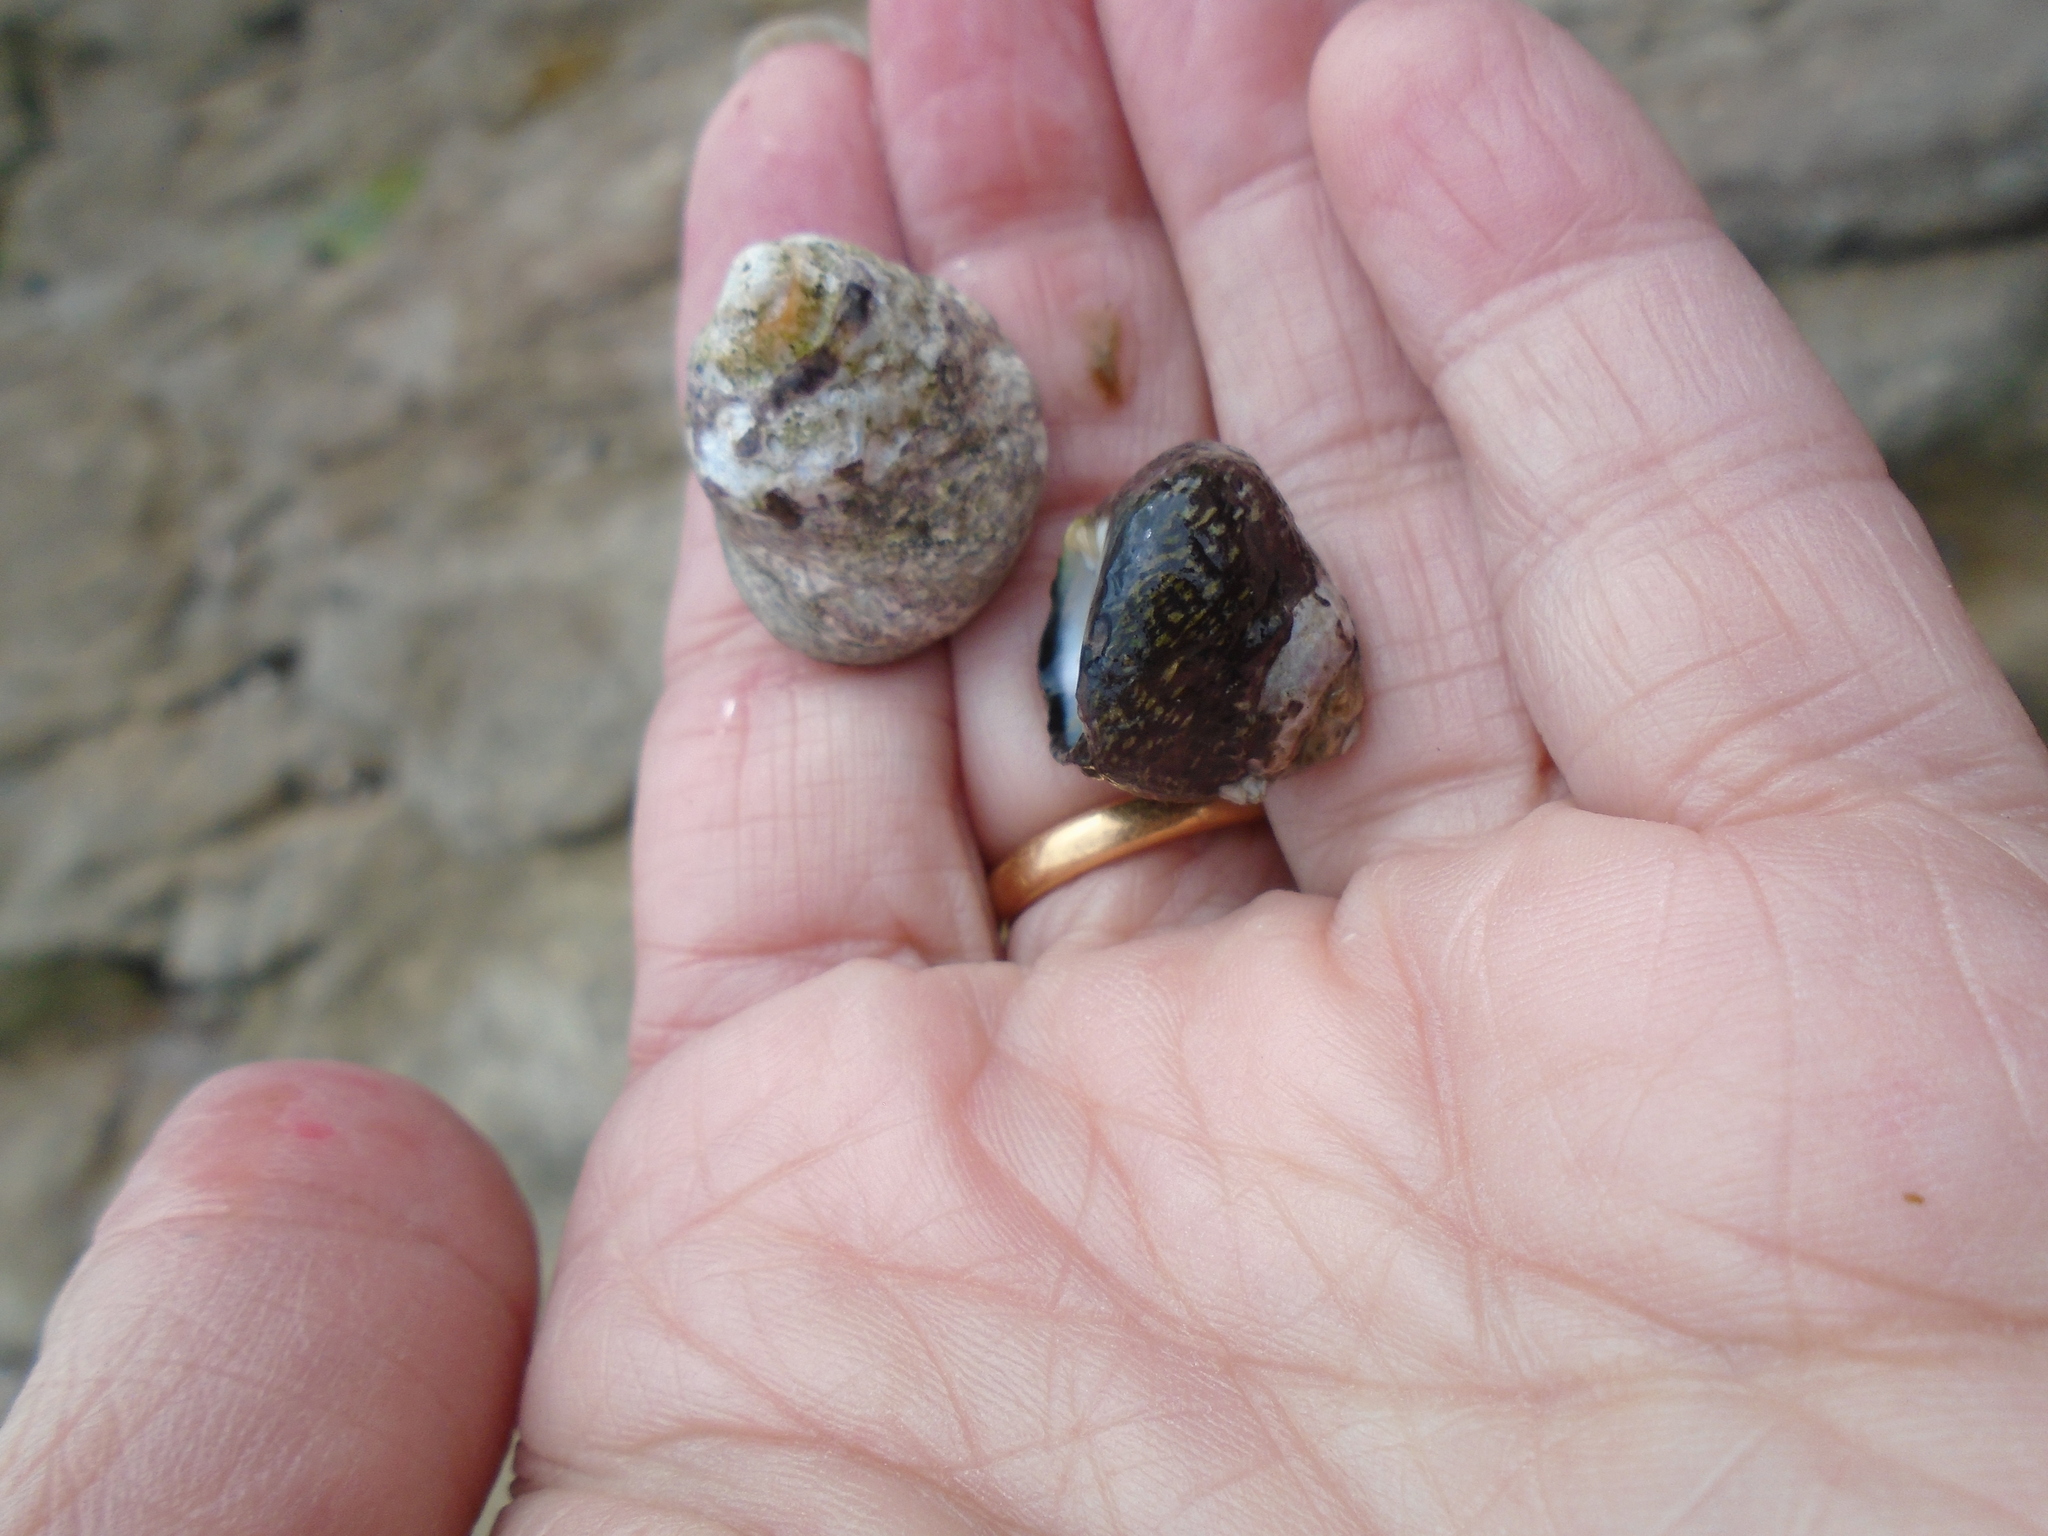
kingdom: Animalia
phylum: Mollusca
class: Gastropoda
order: Trochida
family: Trochidae
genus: Phorcus
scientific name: Phorcus lineatus
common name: Toothed top shell
